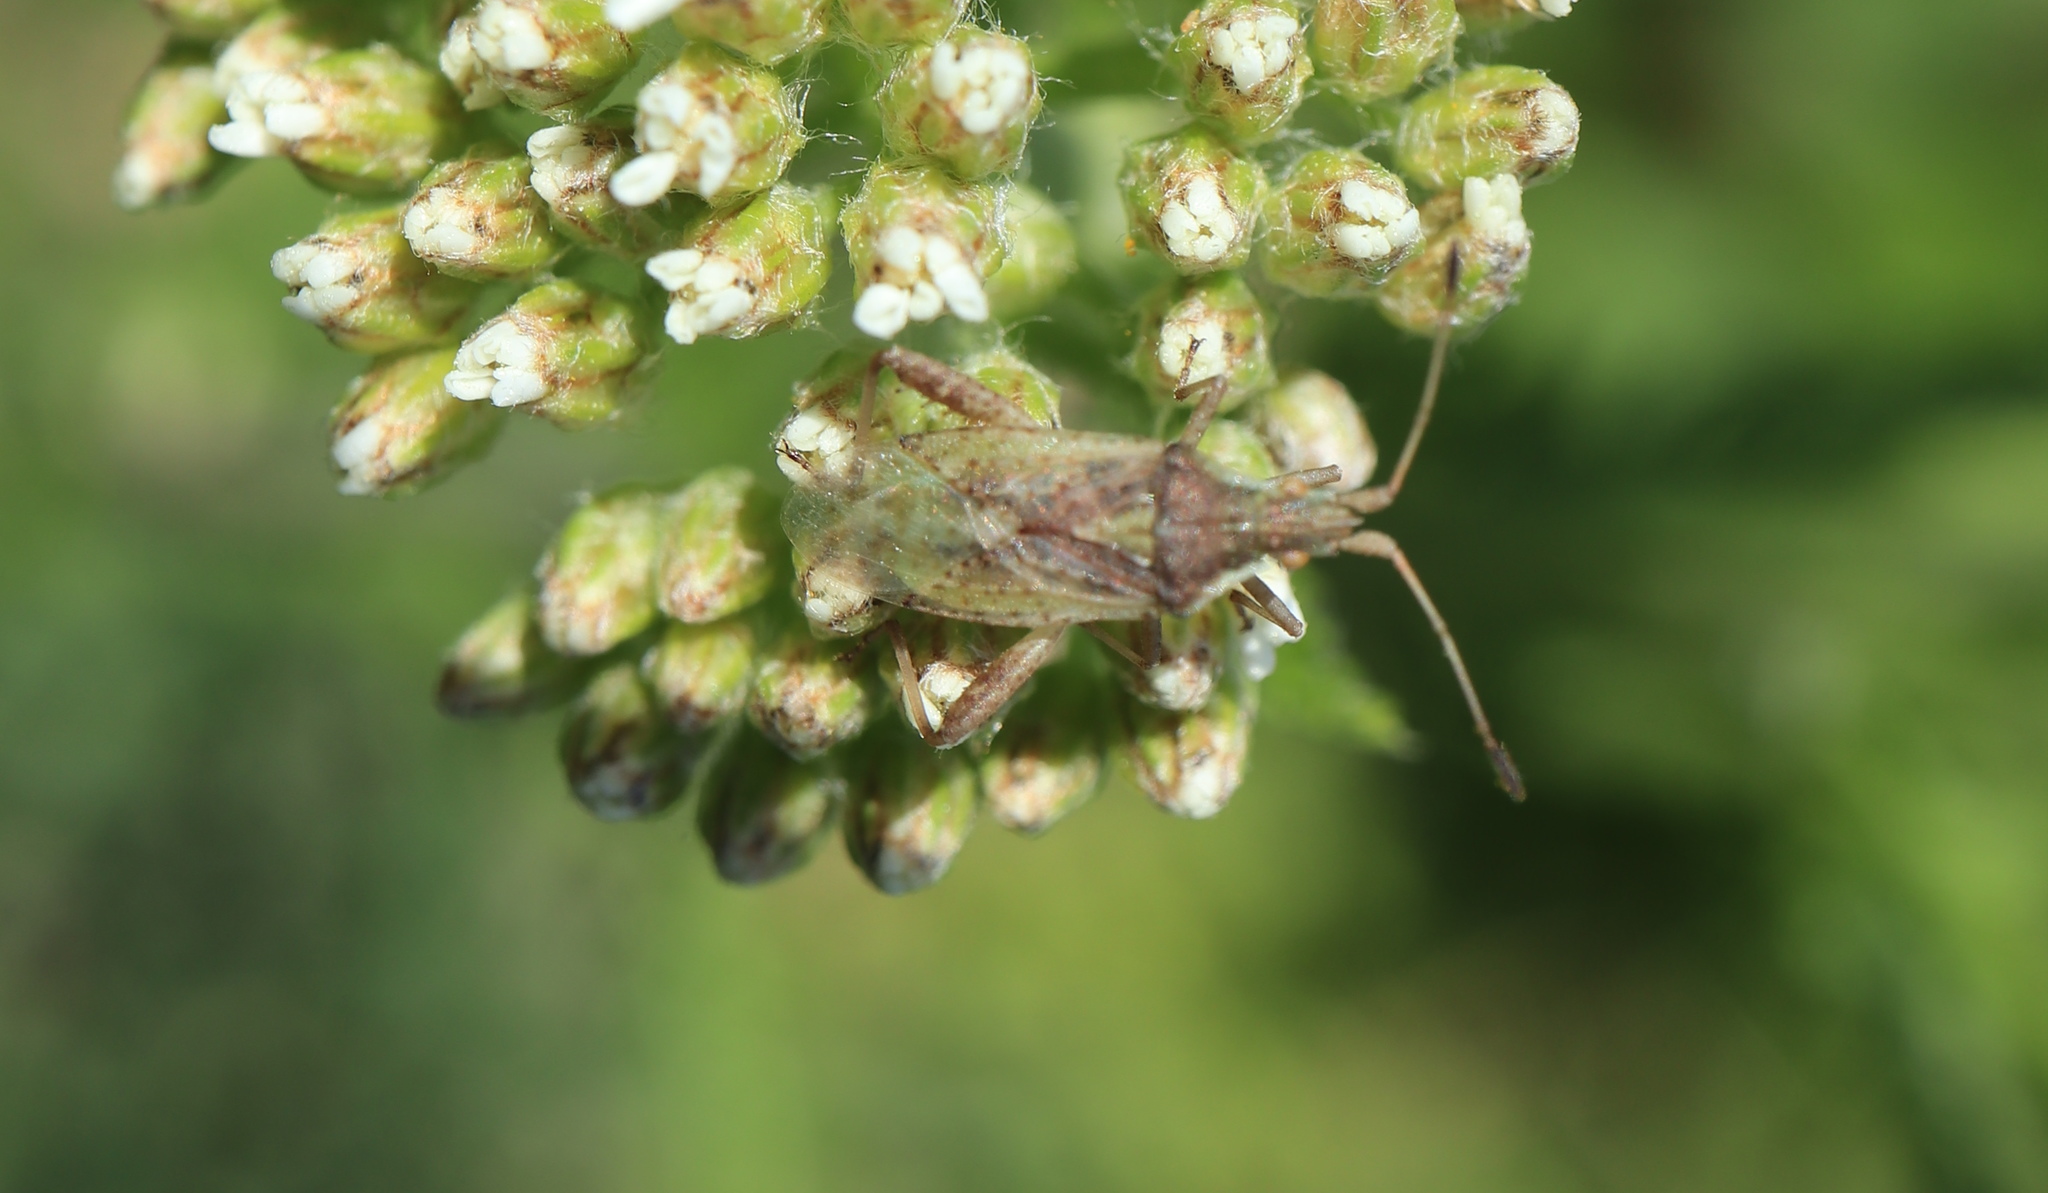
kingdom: Animalia
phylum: Arthropoda
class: Insecta
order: Hemiptera
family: Rhopalidae
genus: Harmostes
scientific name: Harmostes reflexulus
